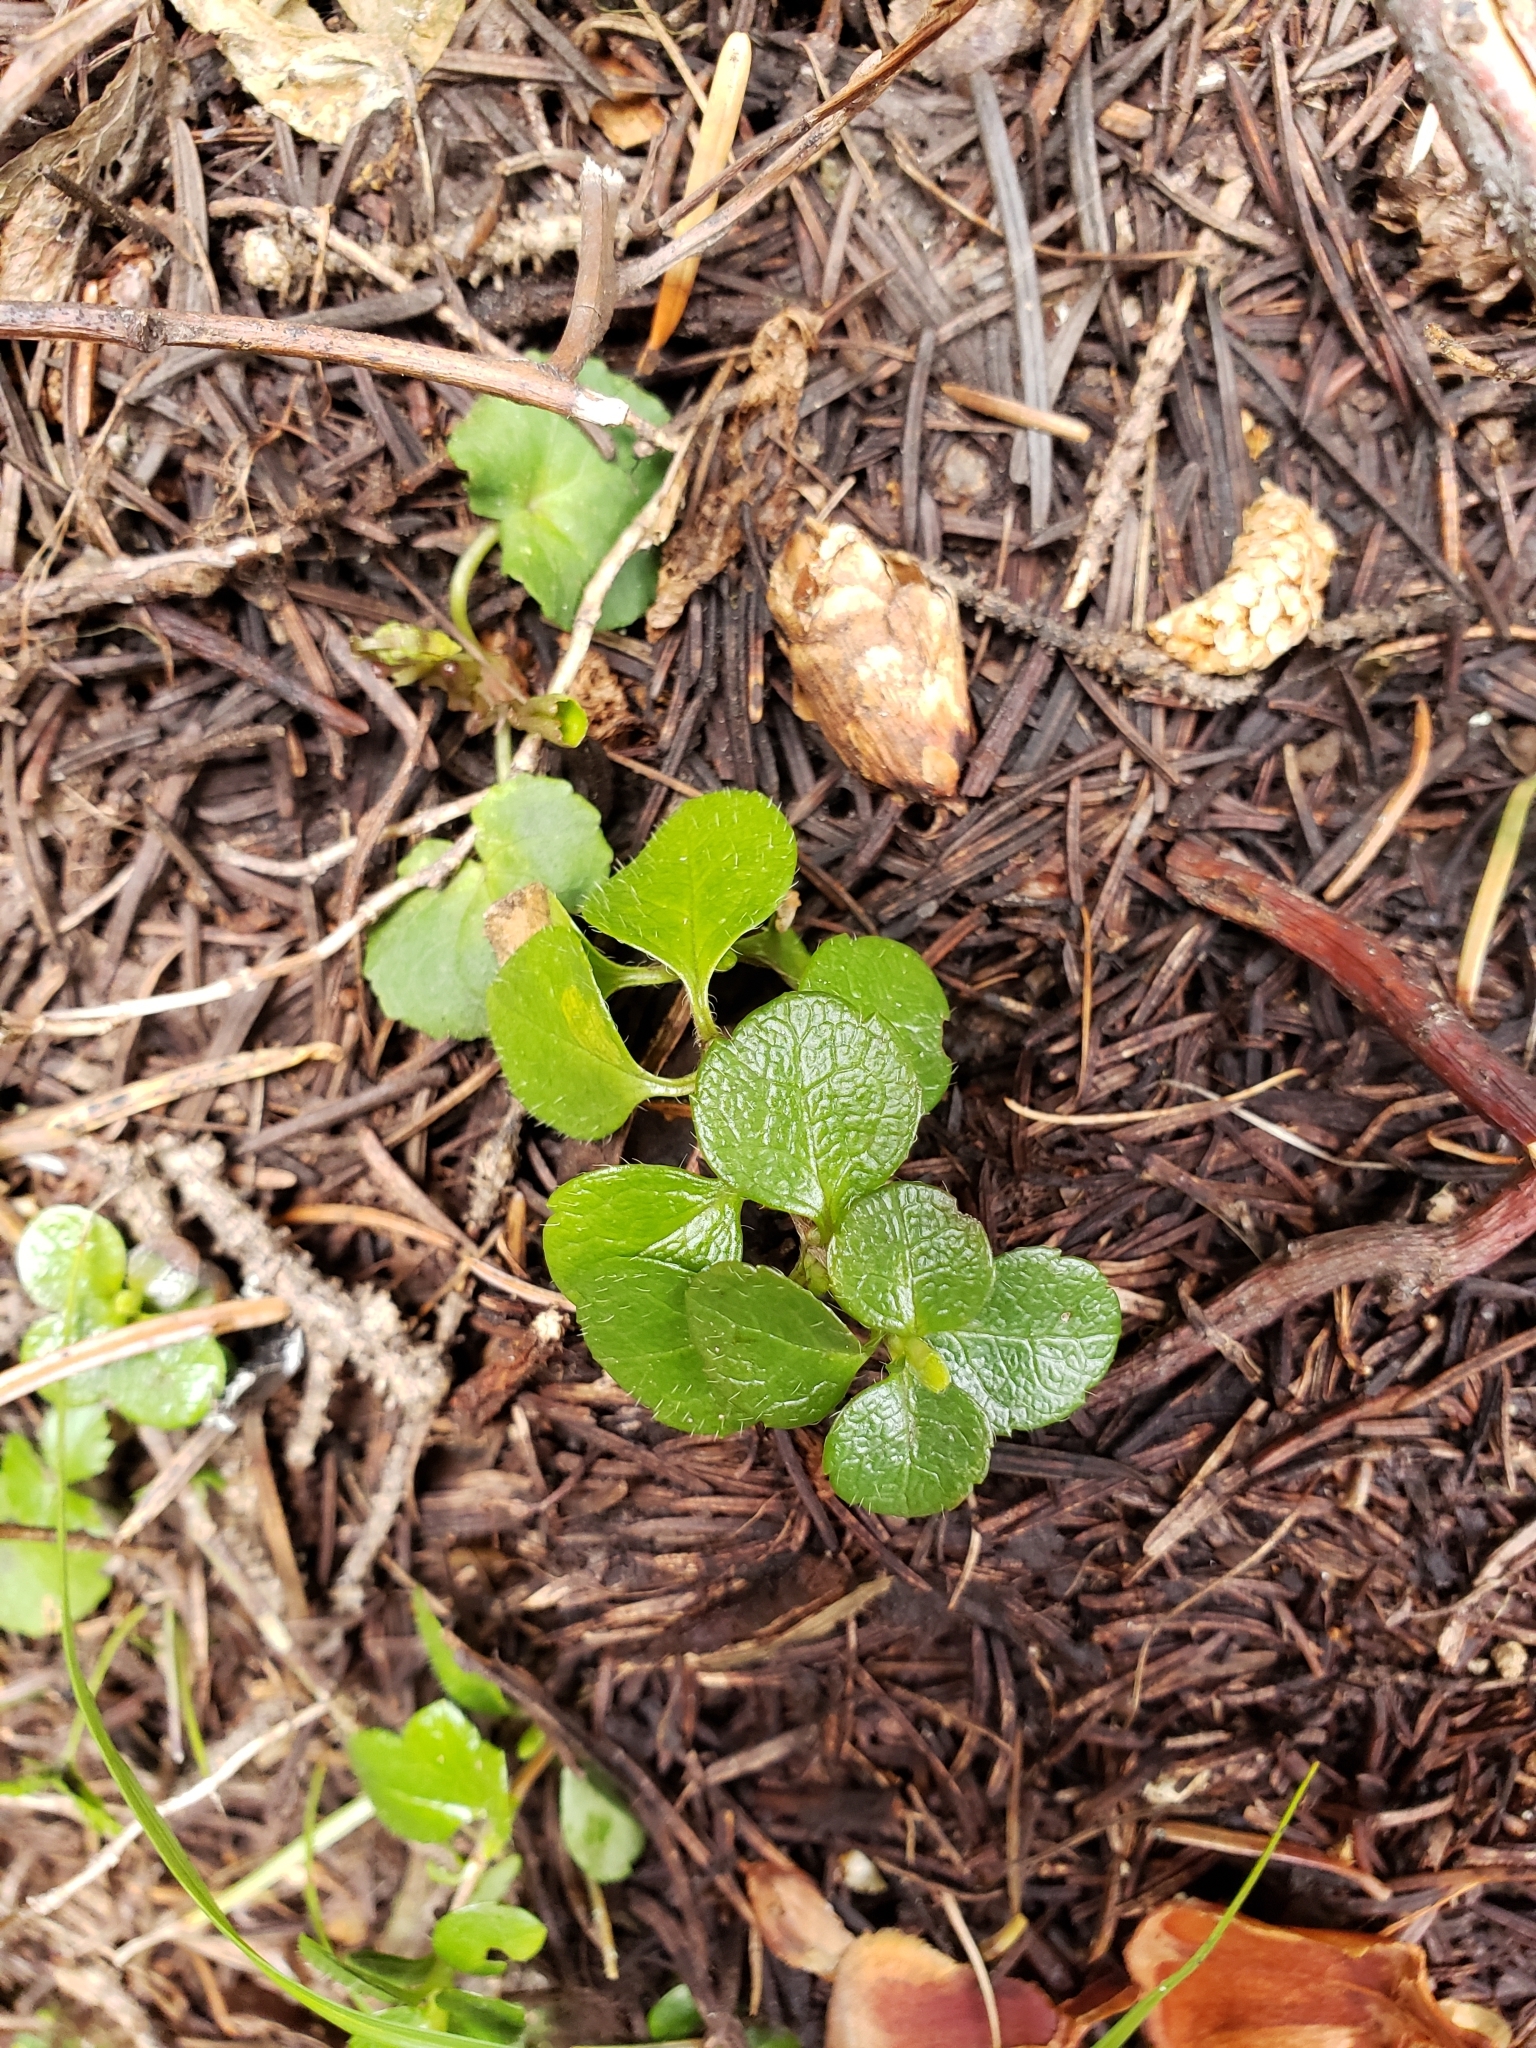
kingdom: Plantae
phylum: Tracheophyta
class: Magnoliopsida
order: Dipsacales
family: Caprifoliaceae
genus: Linnaea
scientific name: Linnaea borealis
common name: Twinflower
